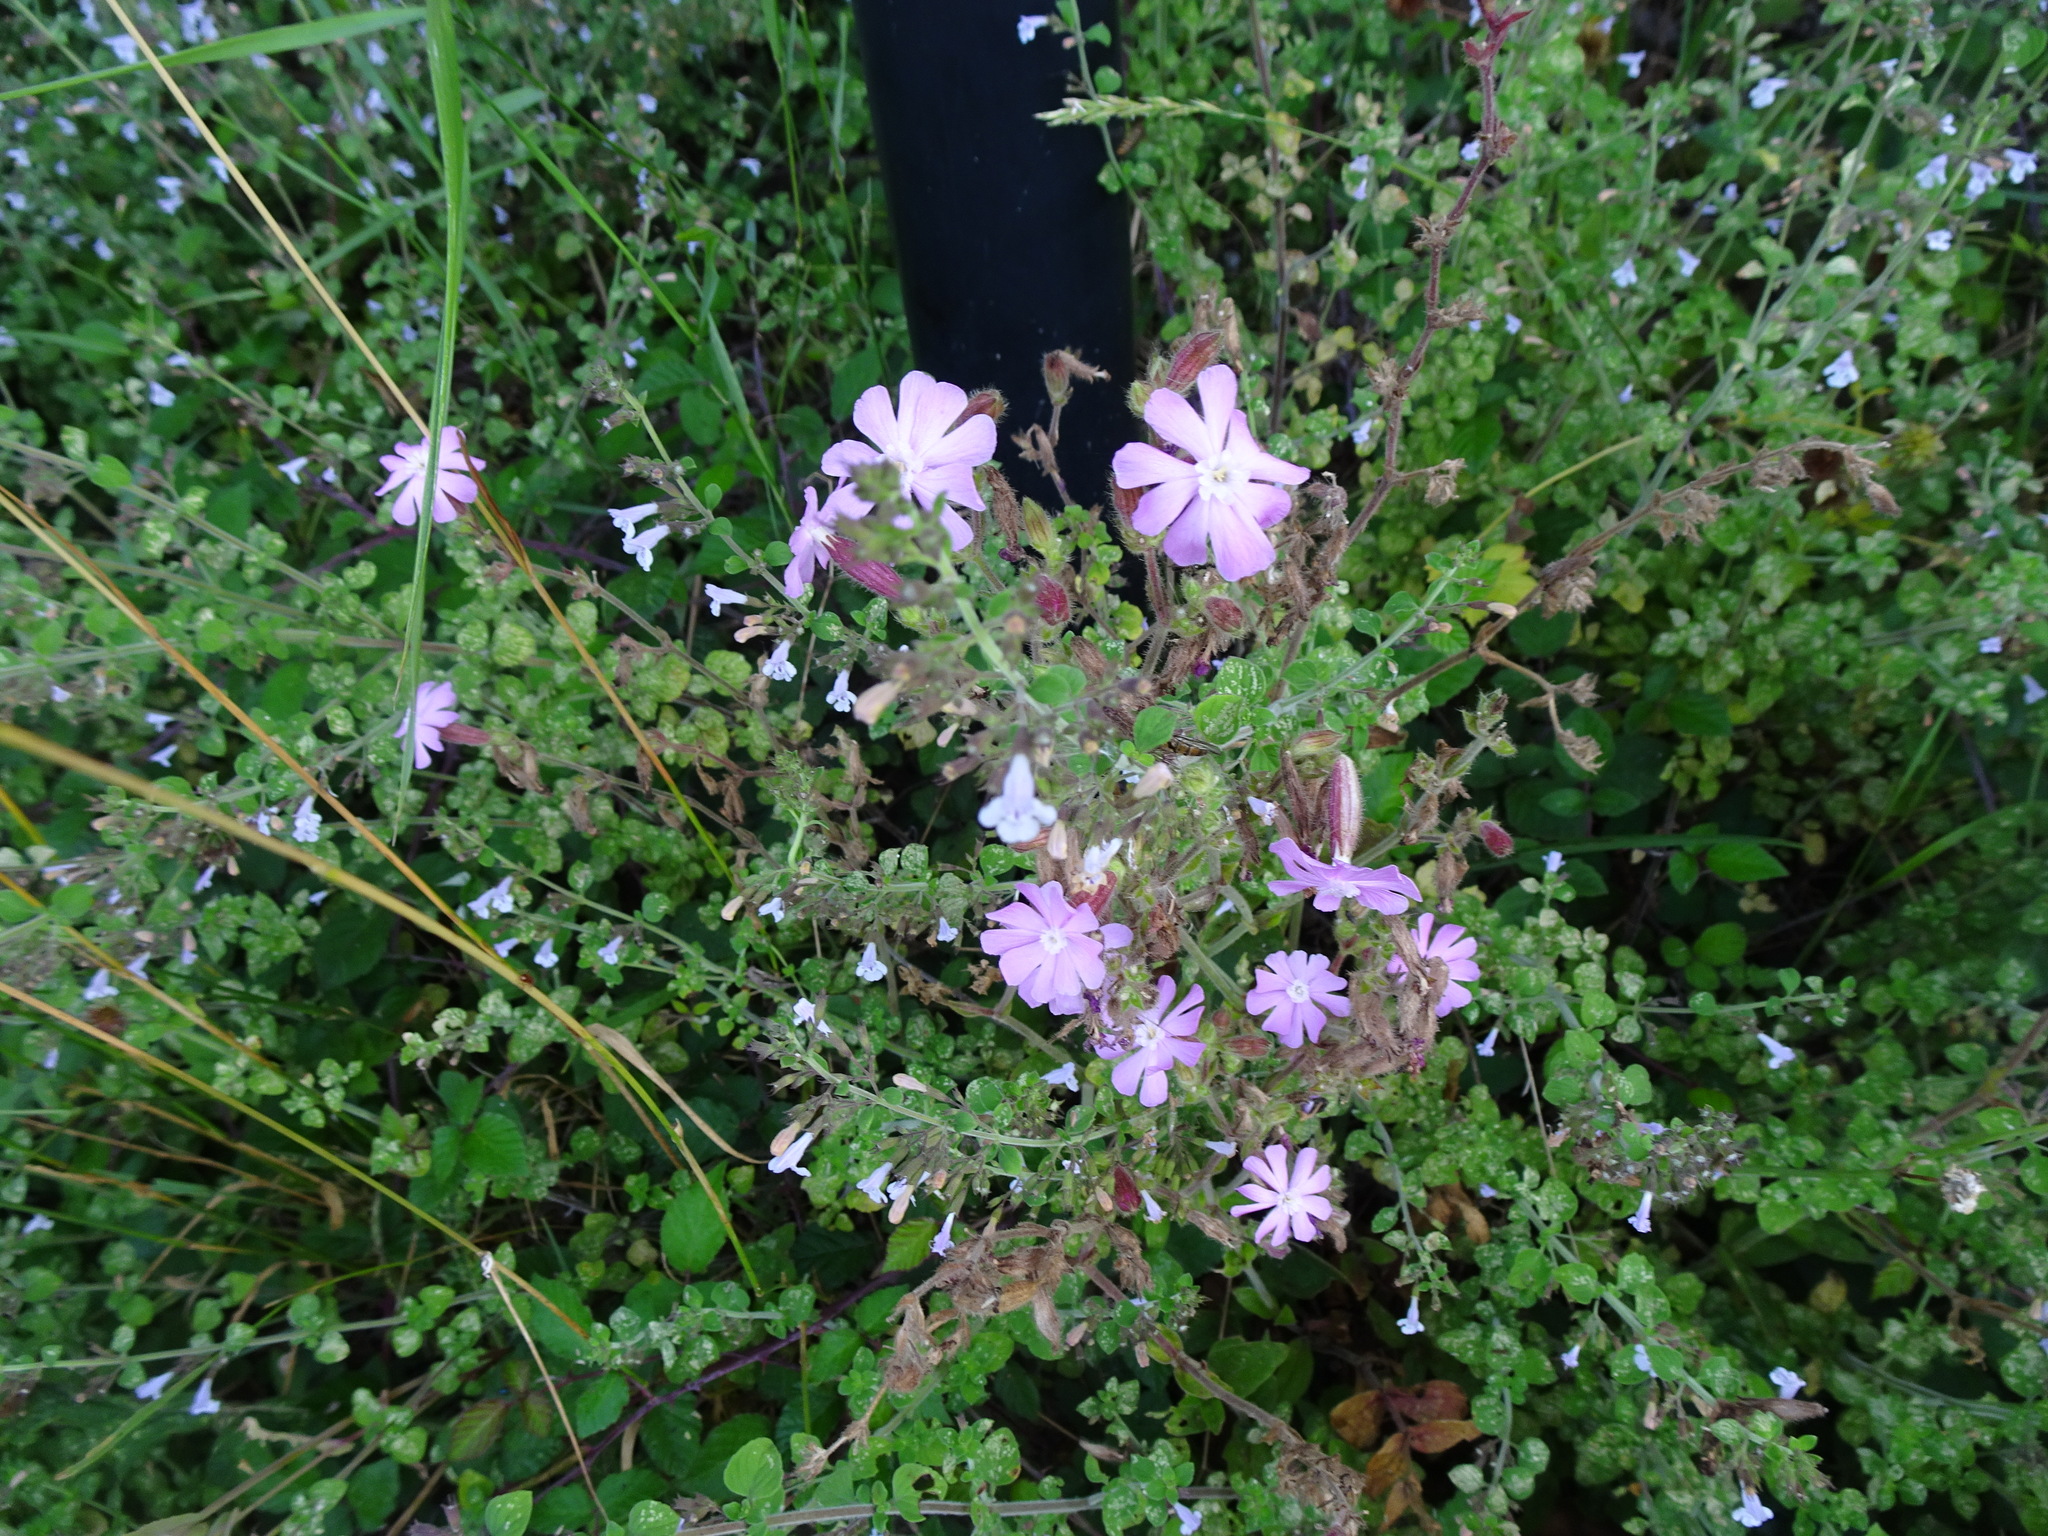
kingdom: Plantae
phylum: Tracheophyta
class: Magnoliopsida
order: Caryophyllales
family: Caryophyllaceae
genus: Silene
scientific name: Silene dioica
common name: Red campion
